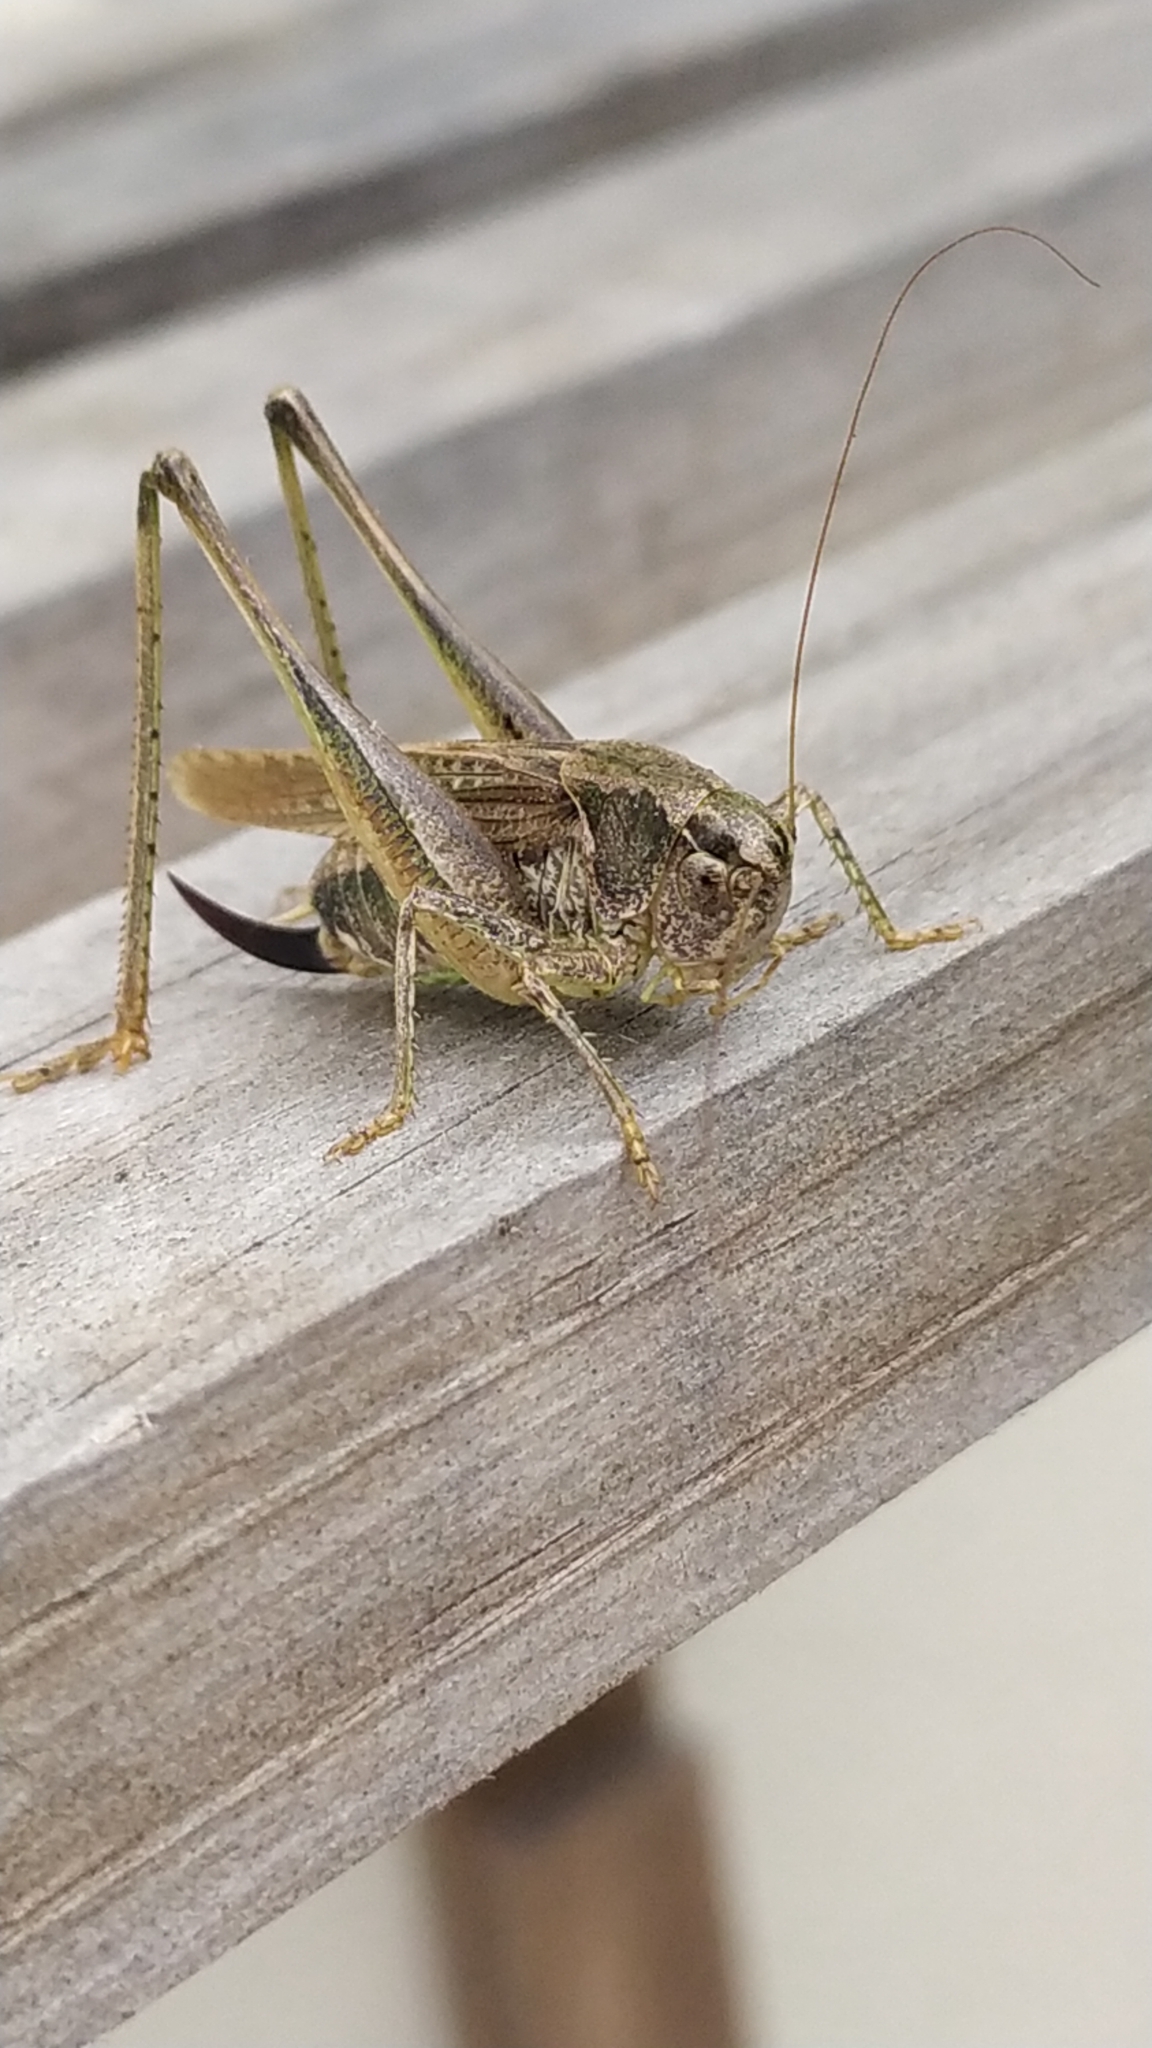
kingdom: Animalia
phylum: Arthropoda
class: Insecta
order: Orthoptera
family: Tettigoniidae
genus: Platycleis
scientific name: Platycleis albopunctata
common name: Grey bush-cricket
